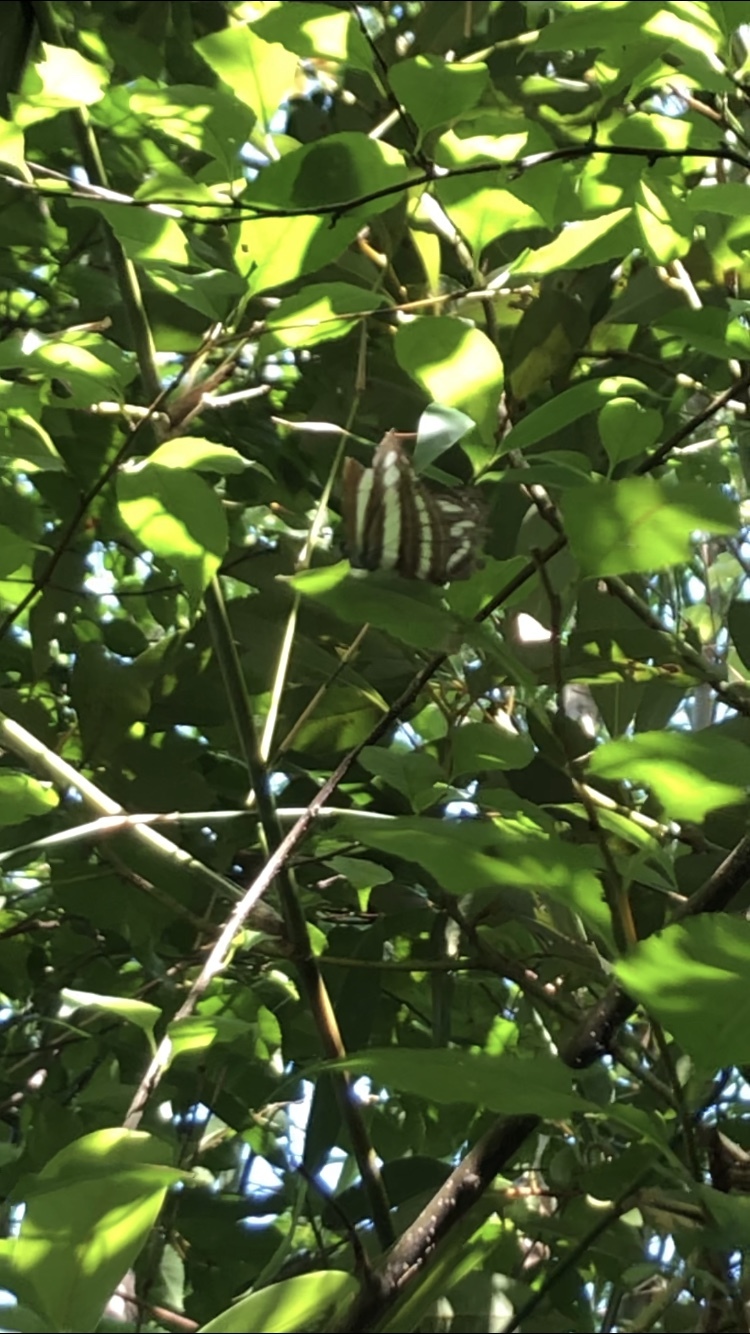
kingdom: Animalia
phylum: Arthropoda
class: Insecta
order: Lepidoptera
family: Nymphalidae
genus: Neptis
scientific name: Neptis clinia
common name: Southern sullied sailer
